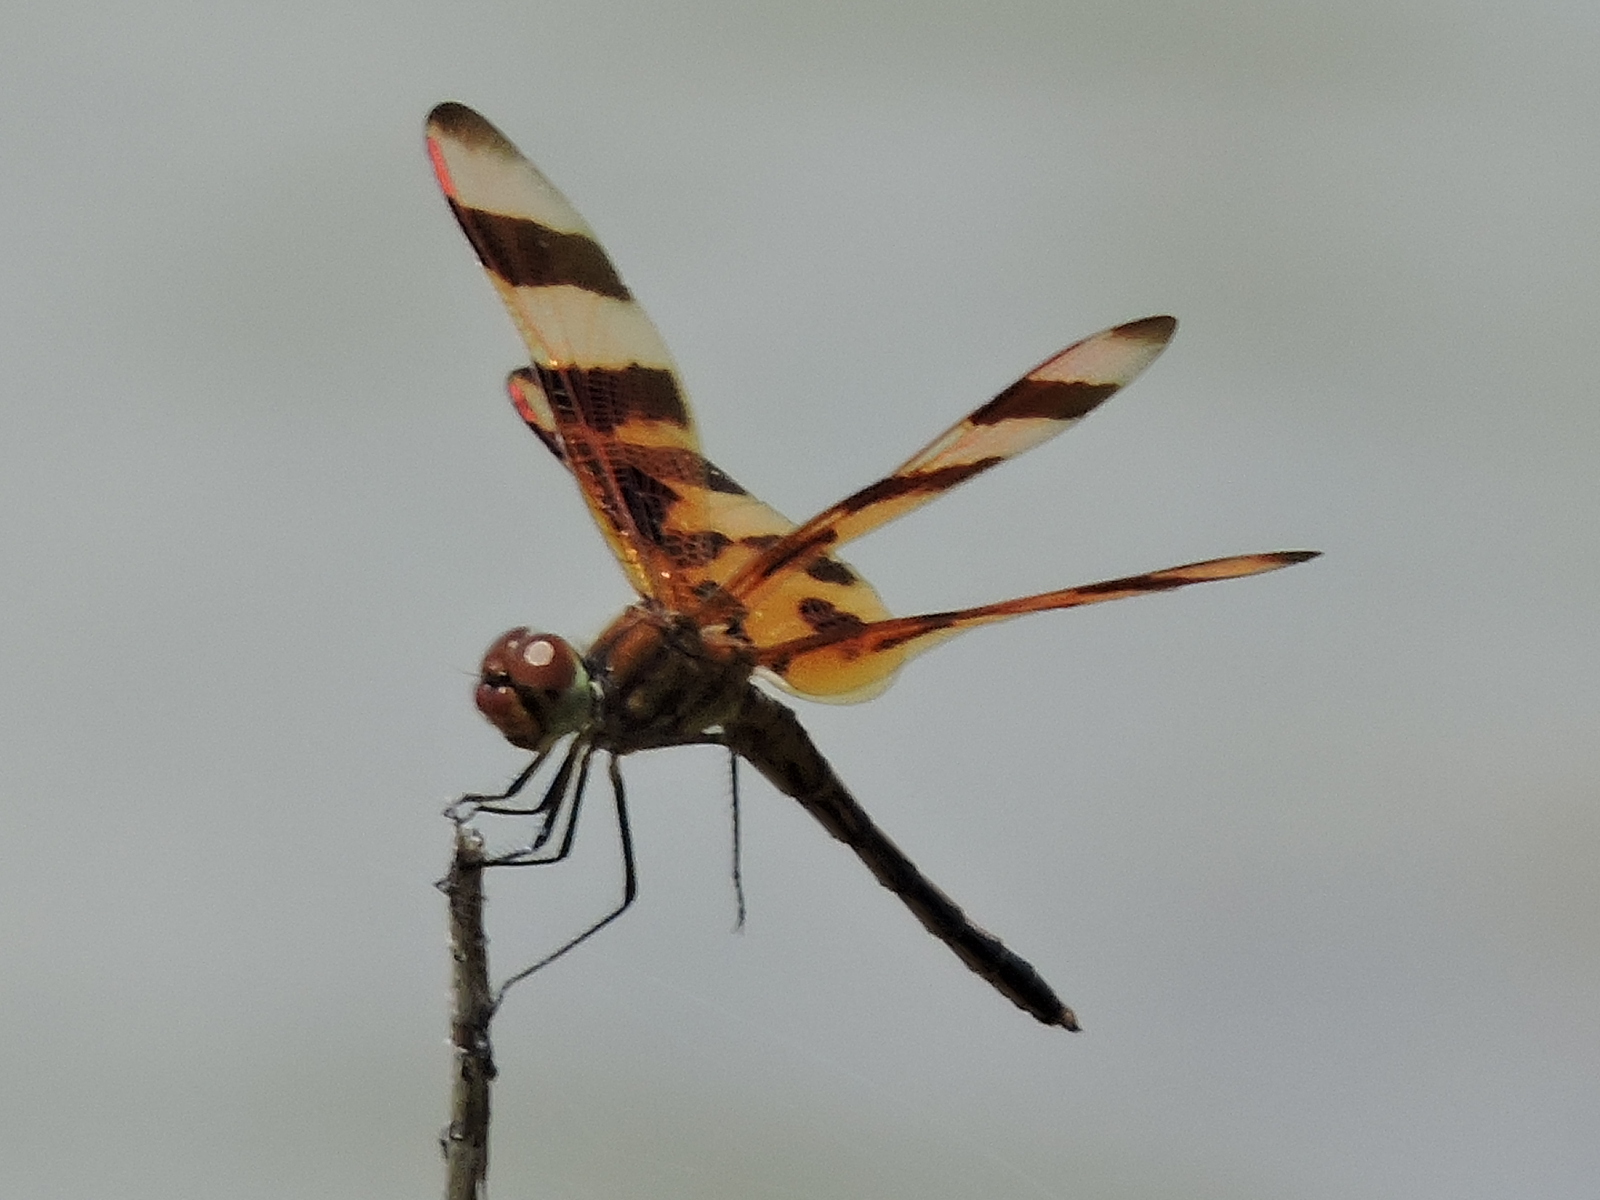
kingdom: Animalia
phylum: Arthropoda
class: Insecta
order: Odonata
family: Libellulidae
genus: Celithemis
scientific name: Celithemis eponina
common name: Halloween pennant
